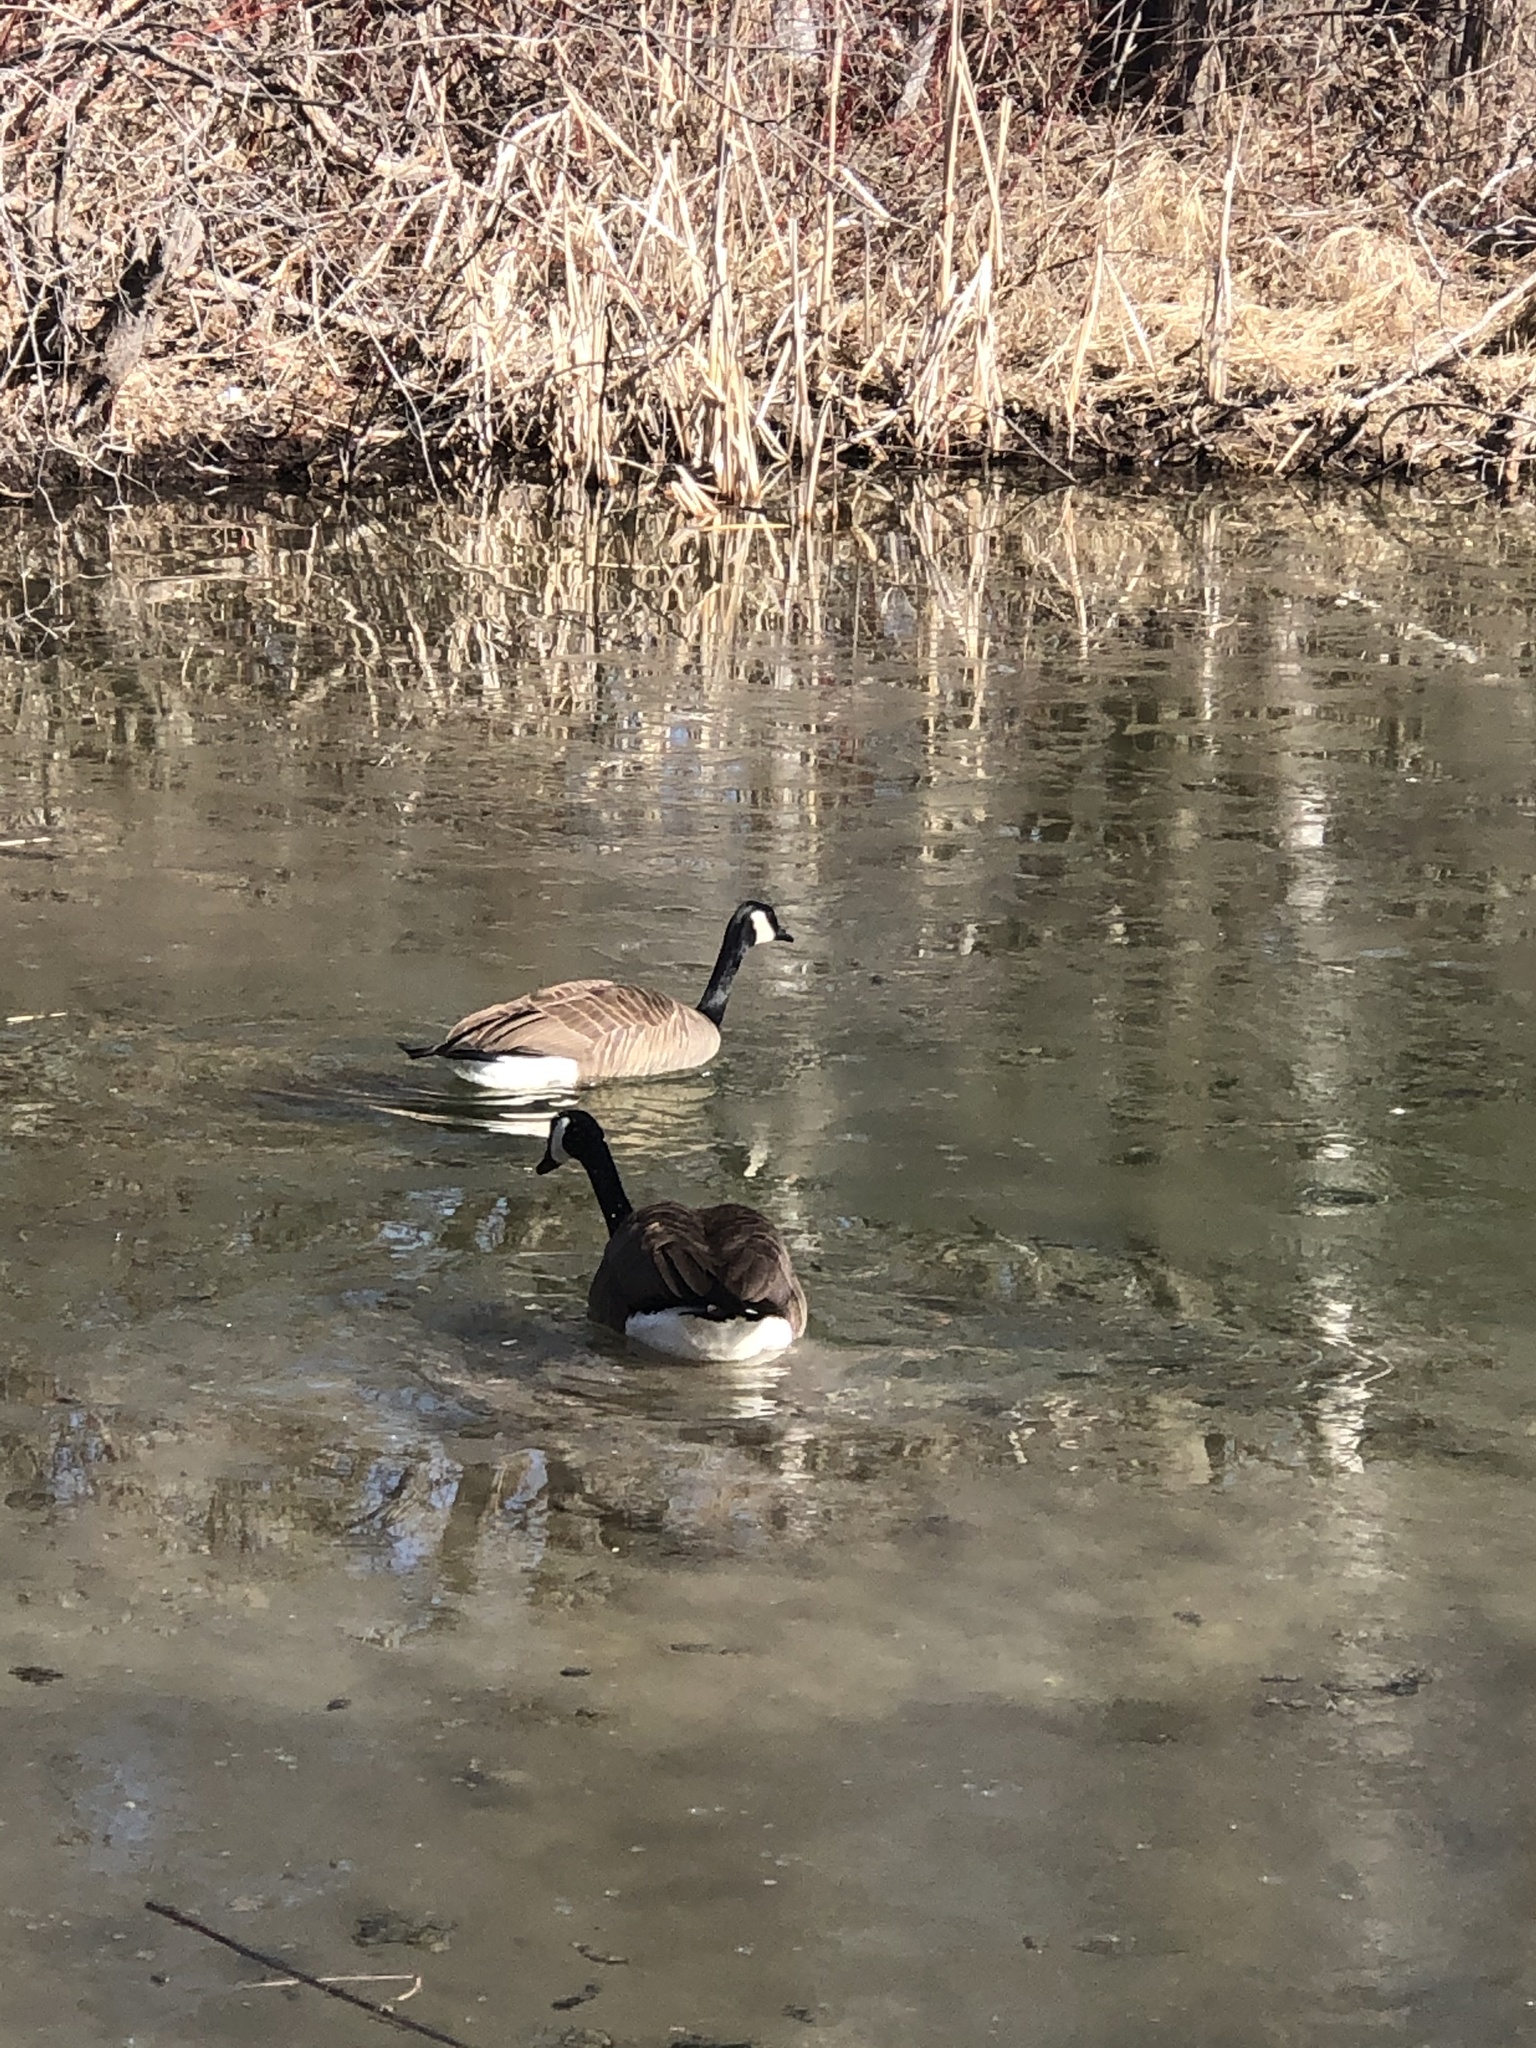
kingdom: Animalia
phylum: Chordata
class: Aves
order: Anseriformes
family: Anatidae
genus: Branta
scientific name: Branta canadensis
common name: Canada goose
